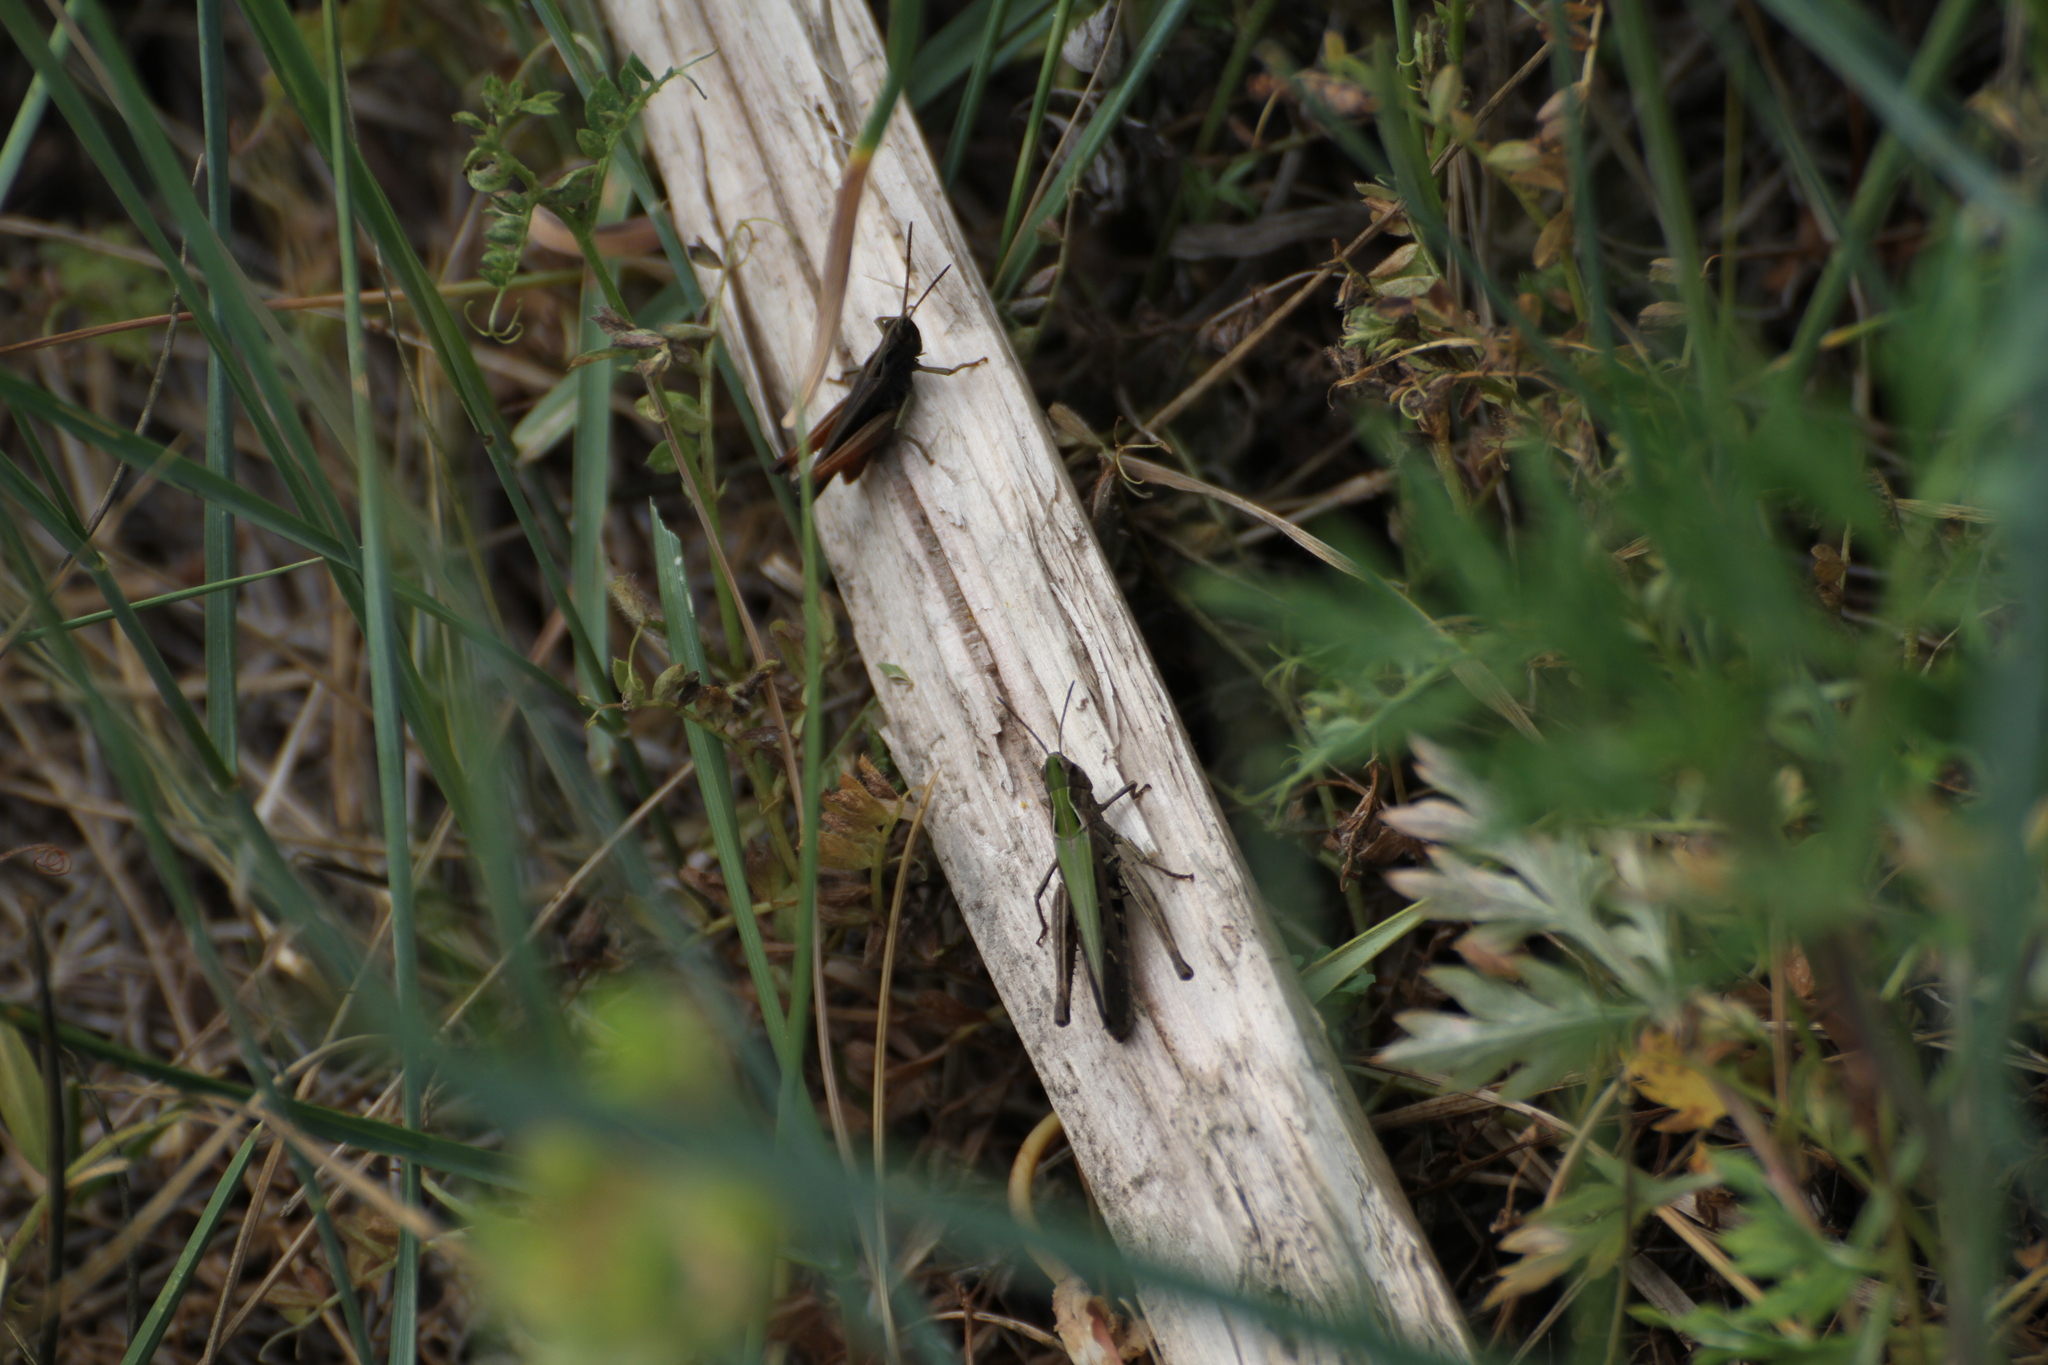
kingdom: Animalia
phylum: Arthropoda
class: Insecta
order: Orthoptera
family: Acrididae
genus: Omocestus
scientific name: Omocestus rufipes
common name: Woodland grasshopper
